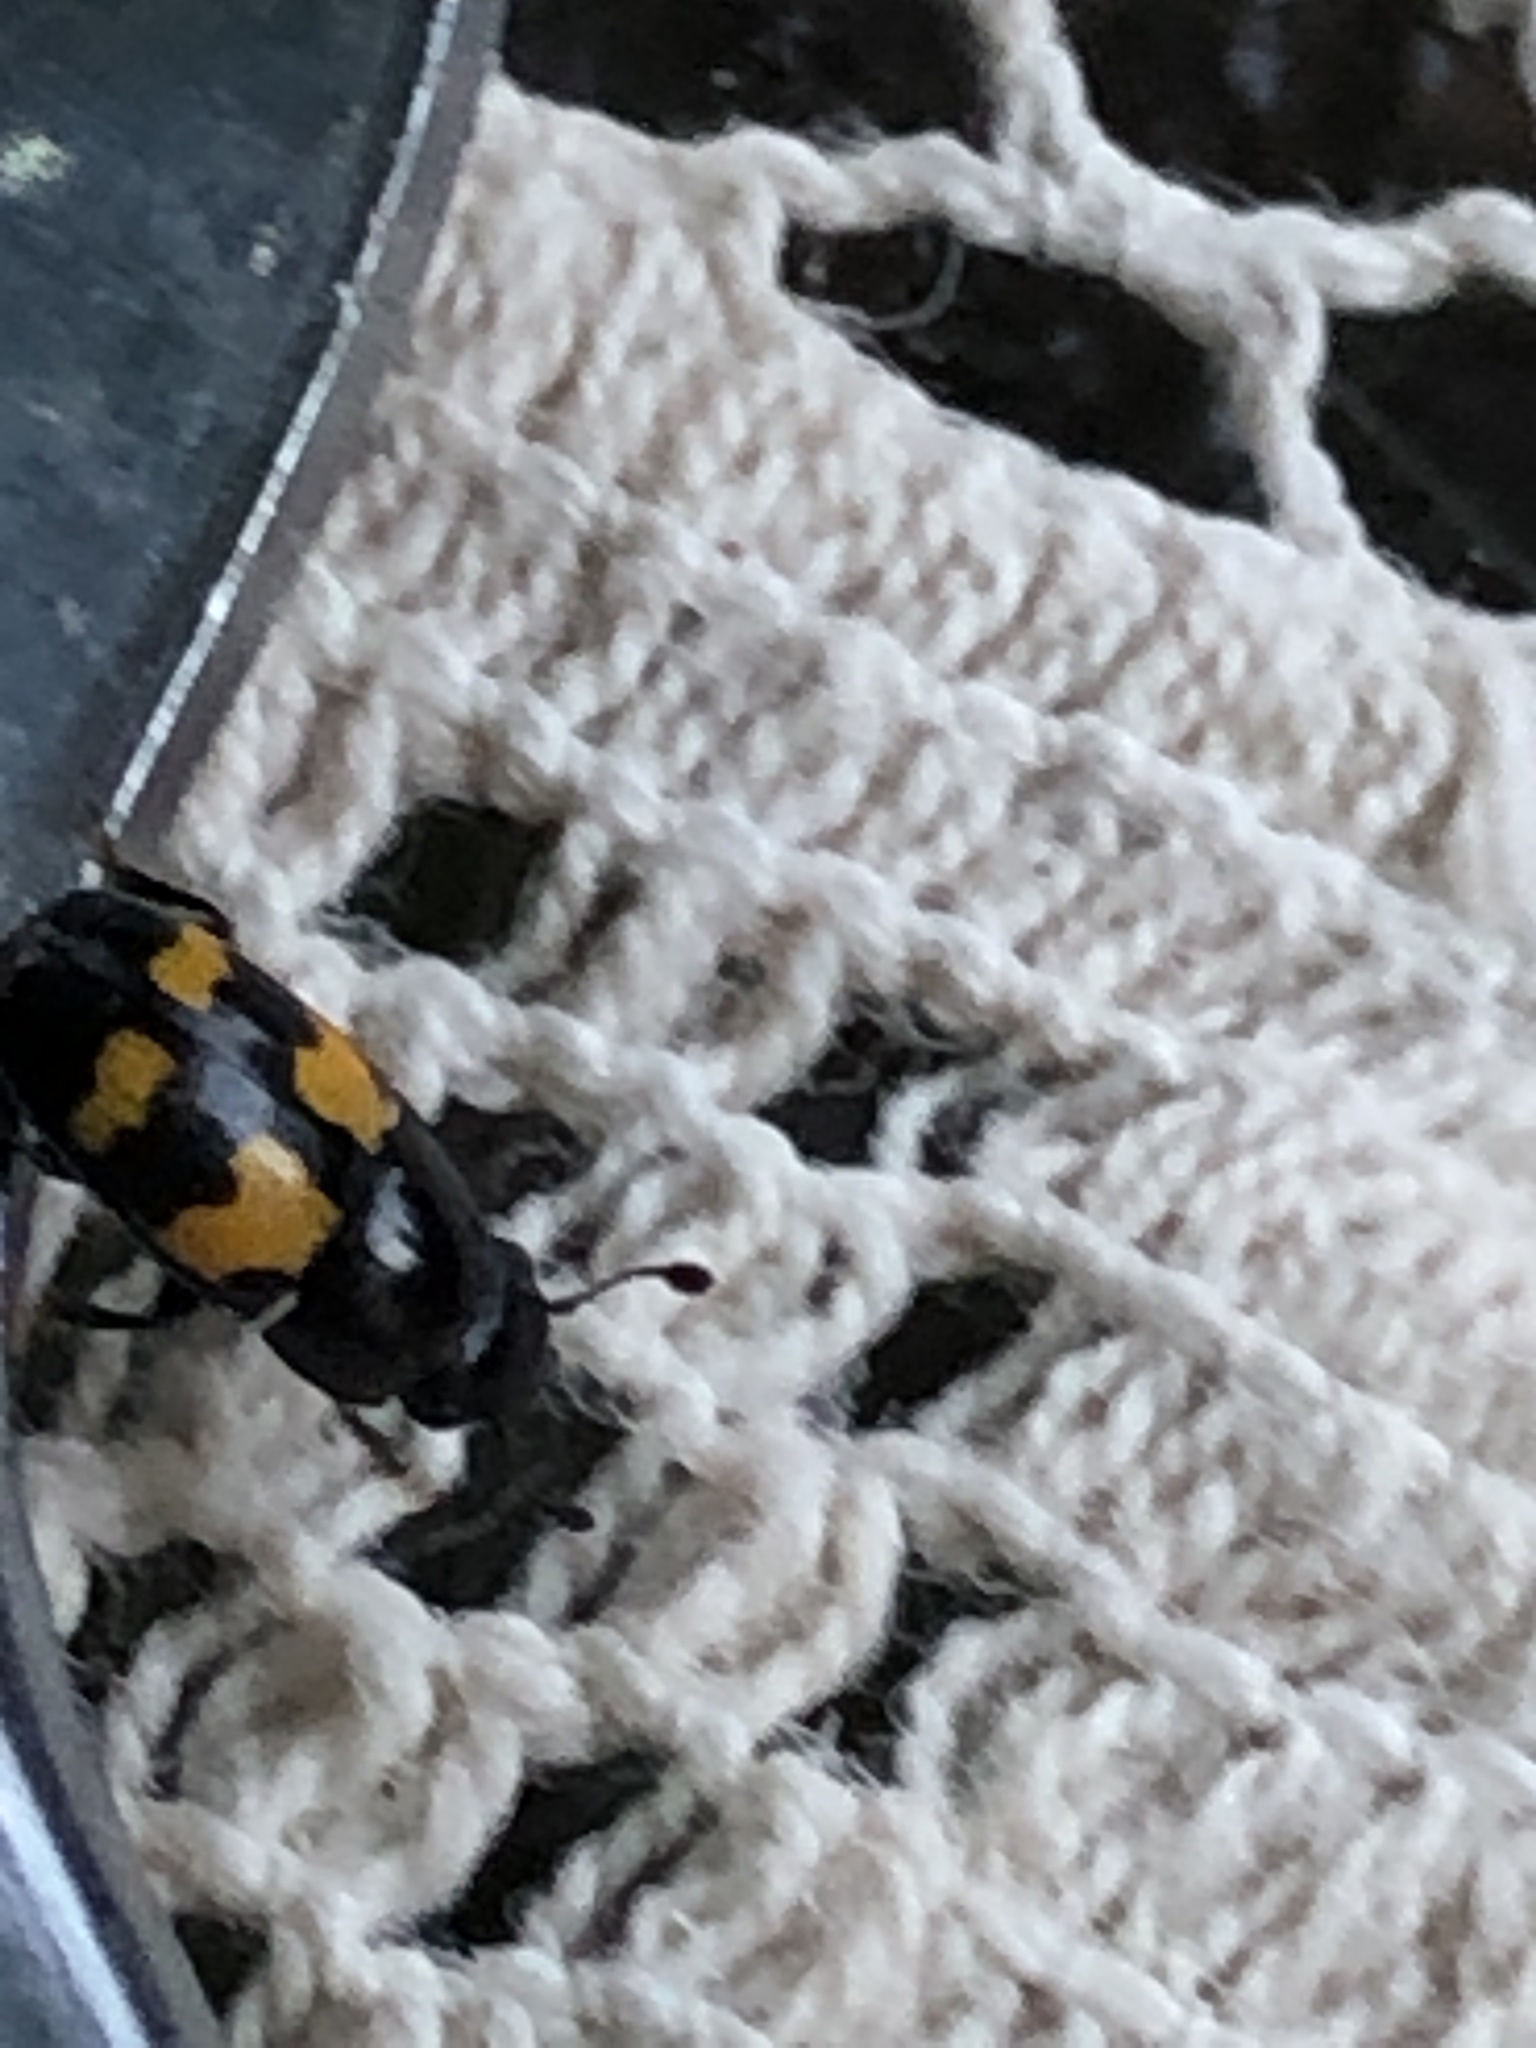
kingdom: Animalia
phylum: Arthropoda
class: Insecta
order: Coleoptera
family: Nitidulidae
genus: Glischrochilus
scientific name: Glischrochilus fasciatus
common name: Picnic beetle
